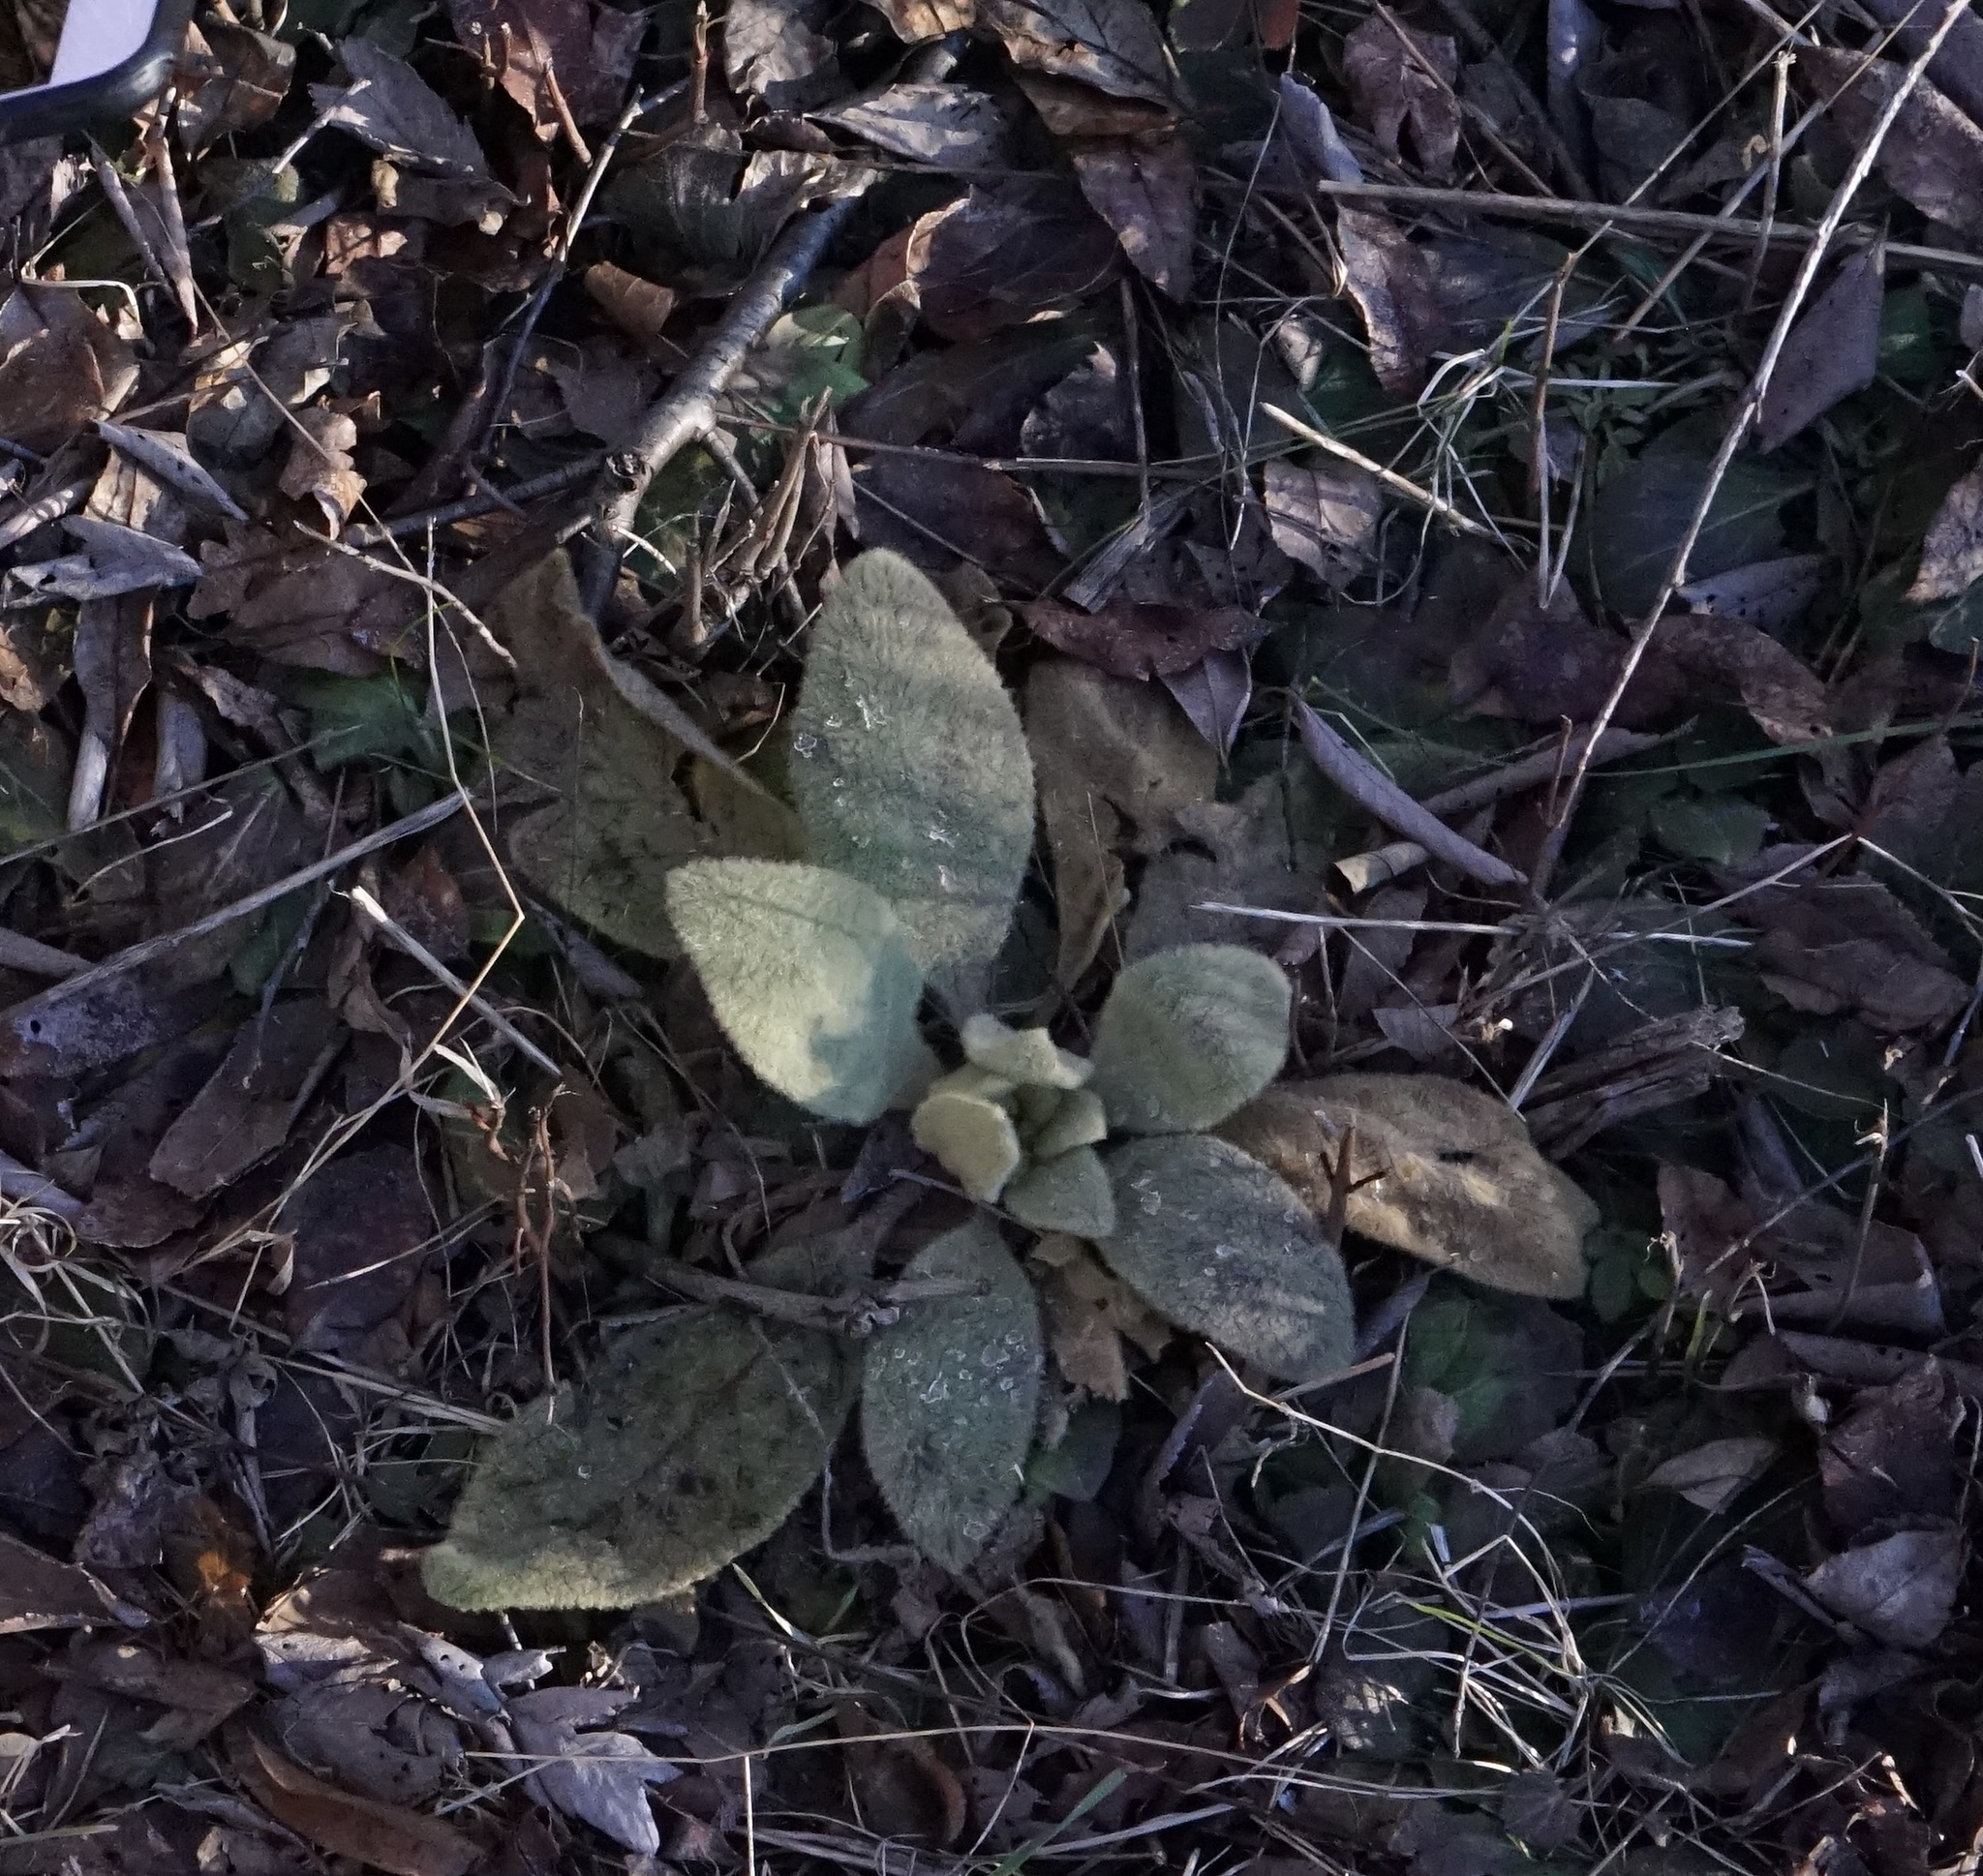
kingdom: Plantae
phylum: Tracheophyta
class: Magnoliopsida
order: Lamiales
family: Scrophulariaceae
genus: Verbascum
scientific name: Verbascum thapsus
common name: Common mullein
